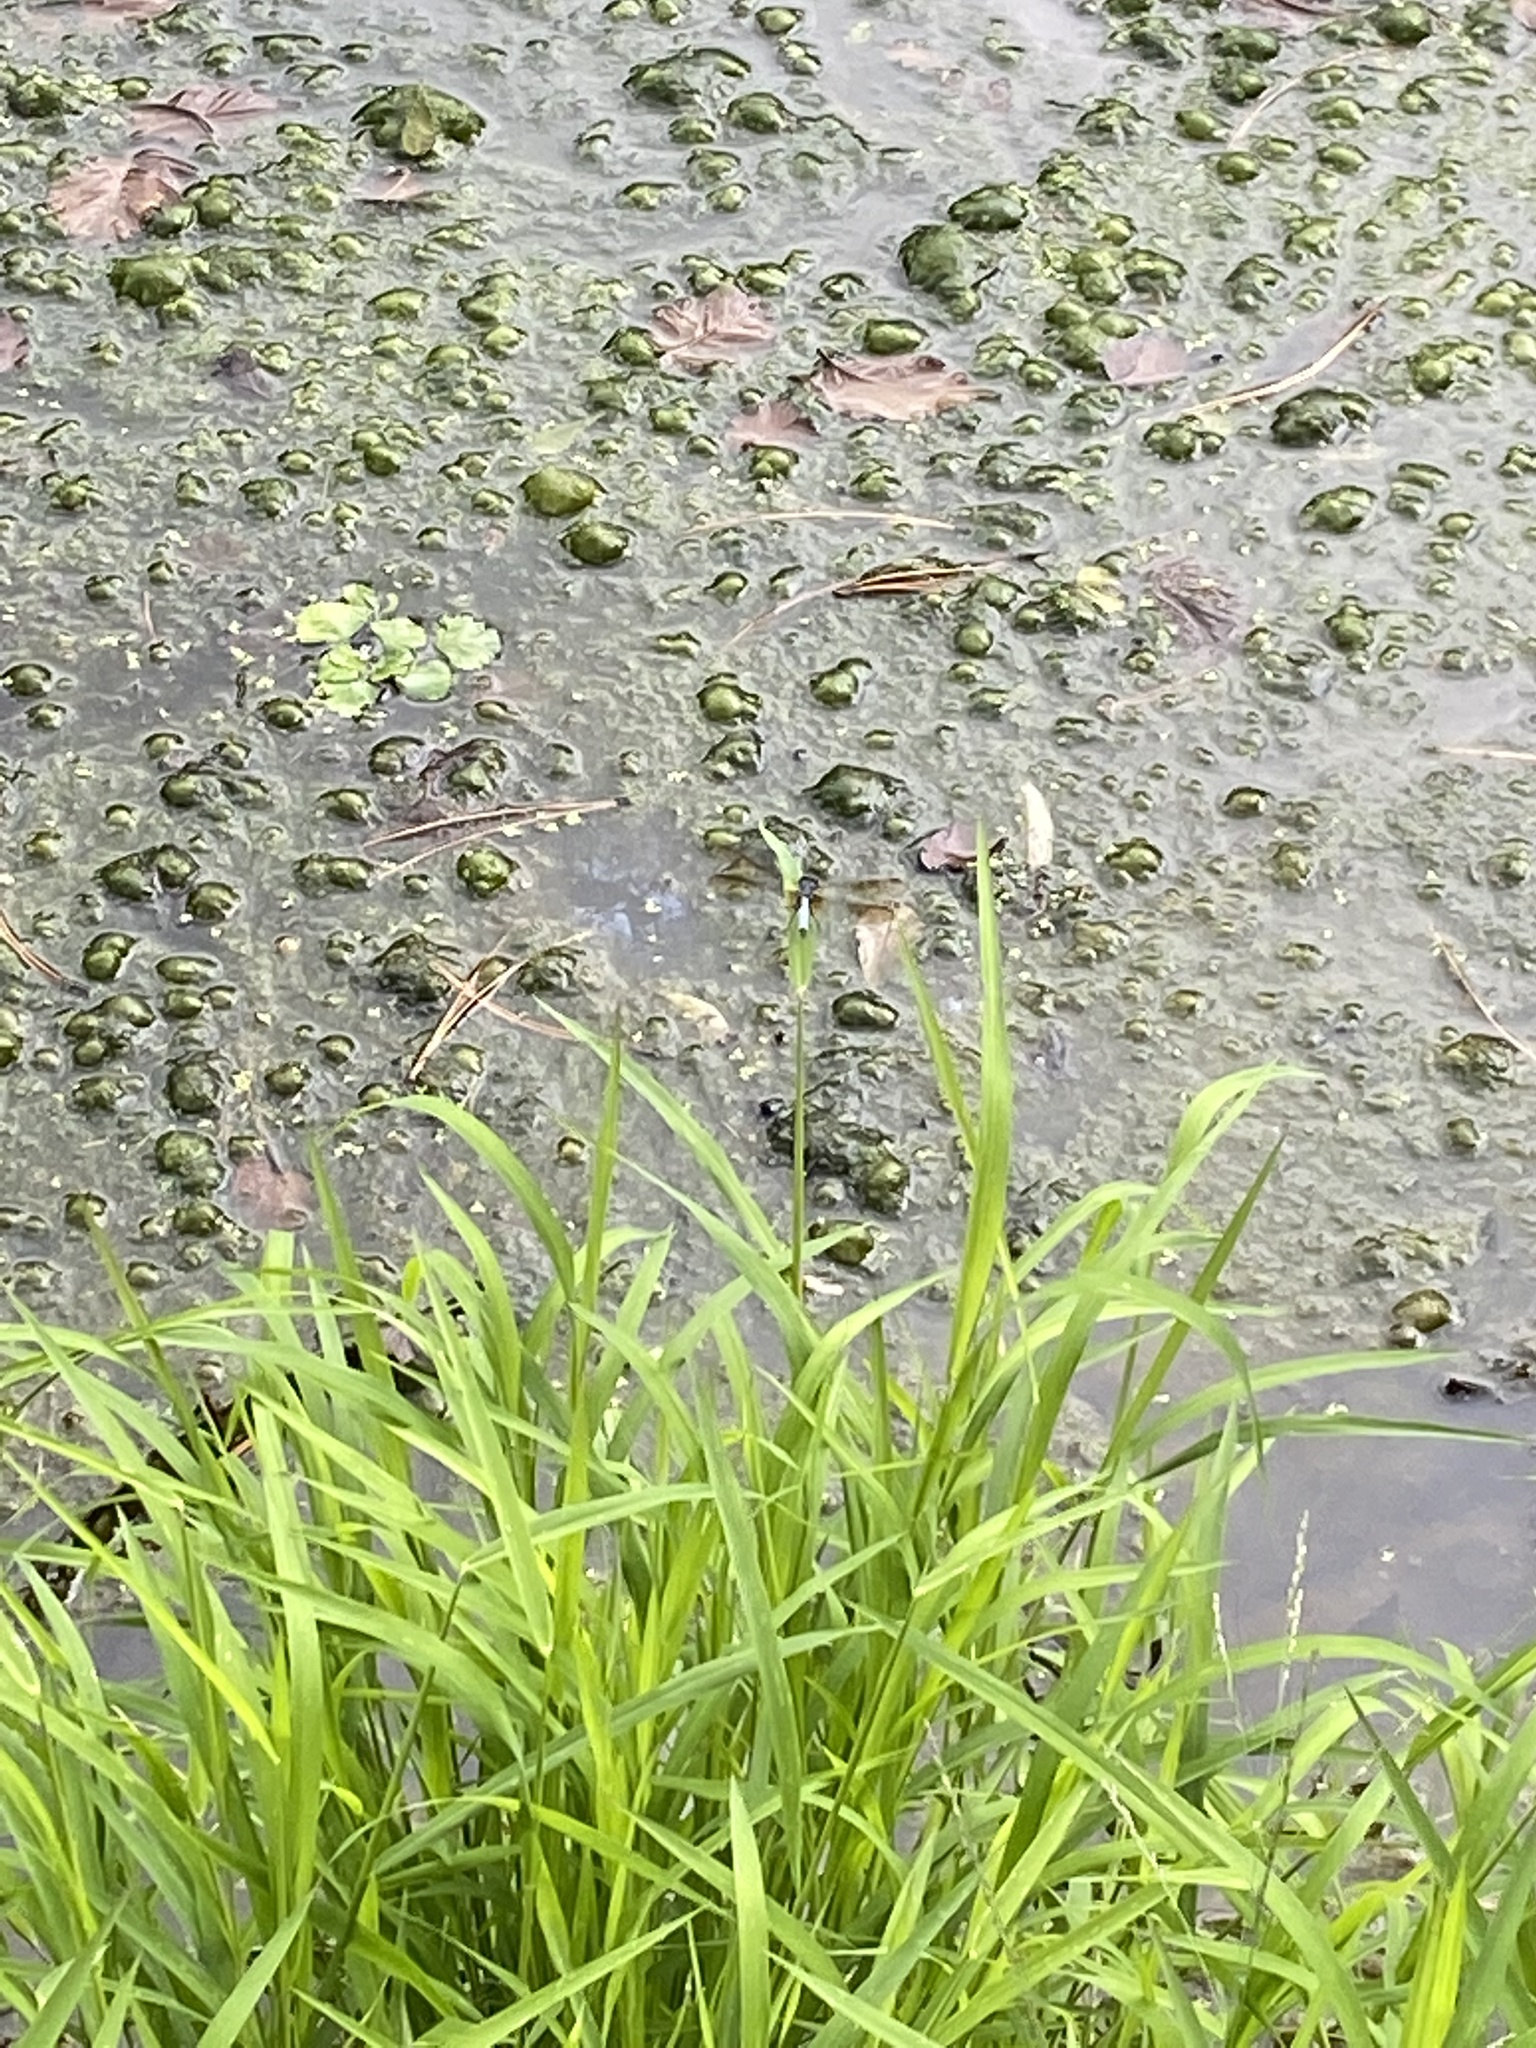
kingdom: Animalia
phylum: Arthropoda
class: Insecta
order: Odonata
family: Libellulidae
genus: Pachydiplax
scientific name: Pachydiplax longipennis
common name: Blue dasher
